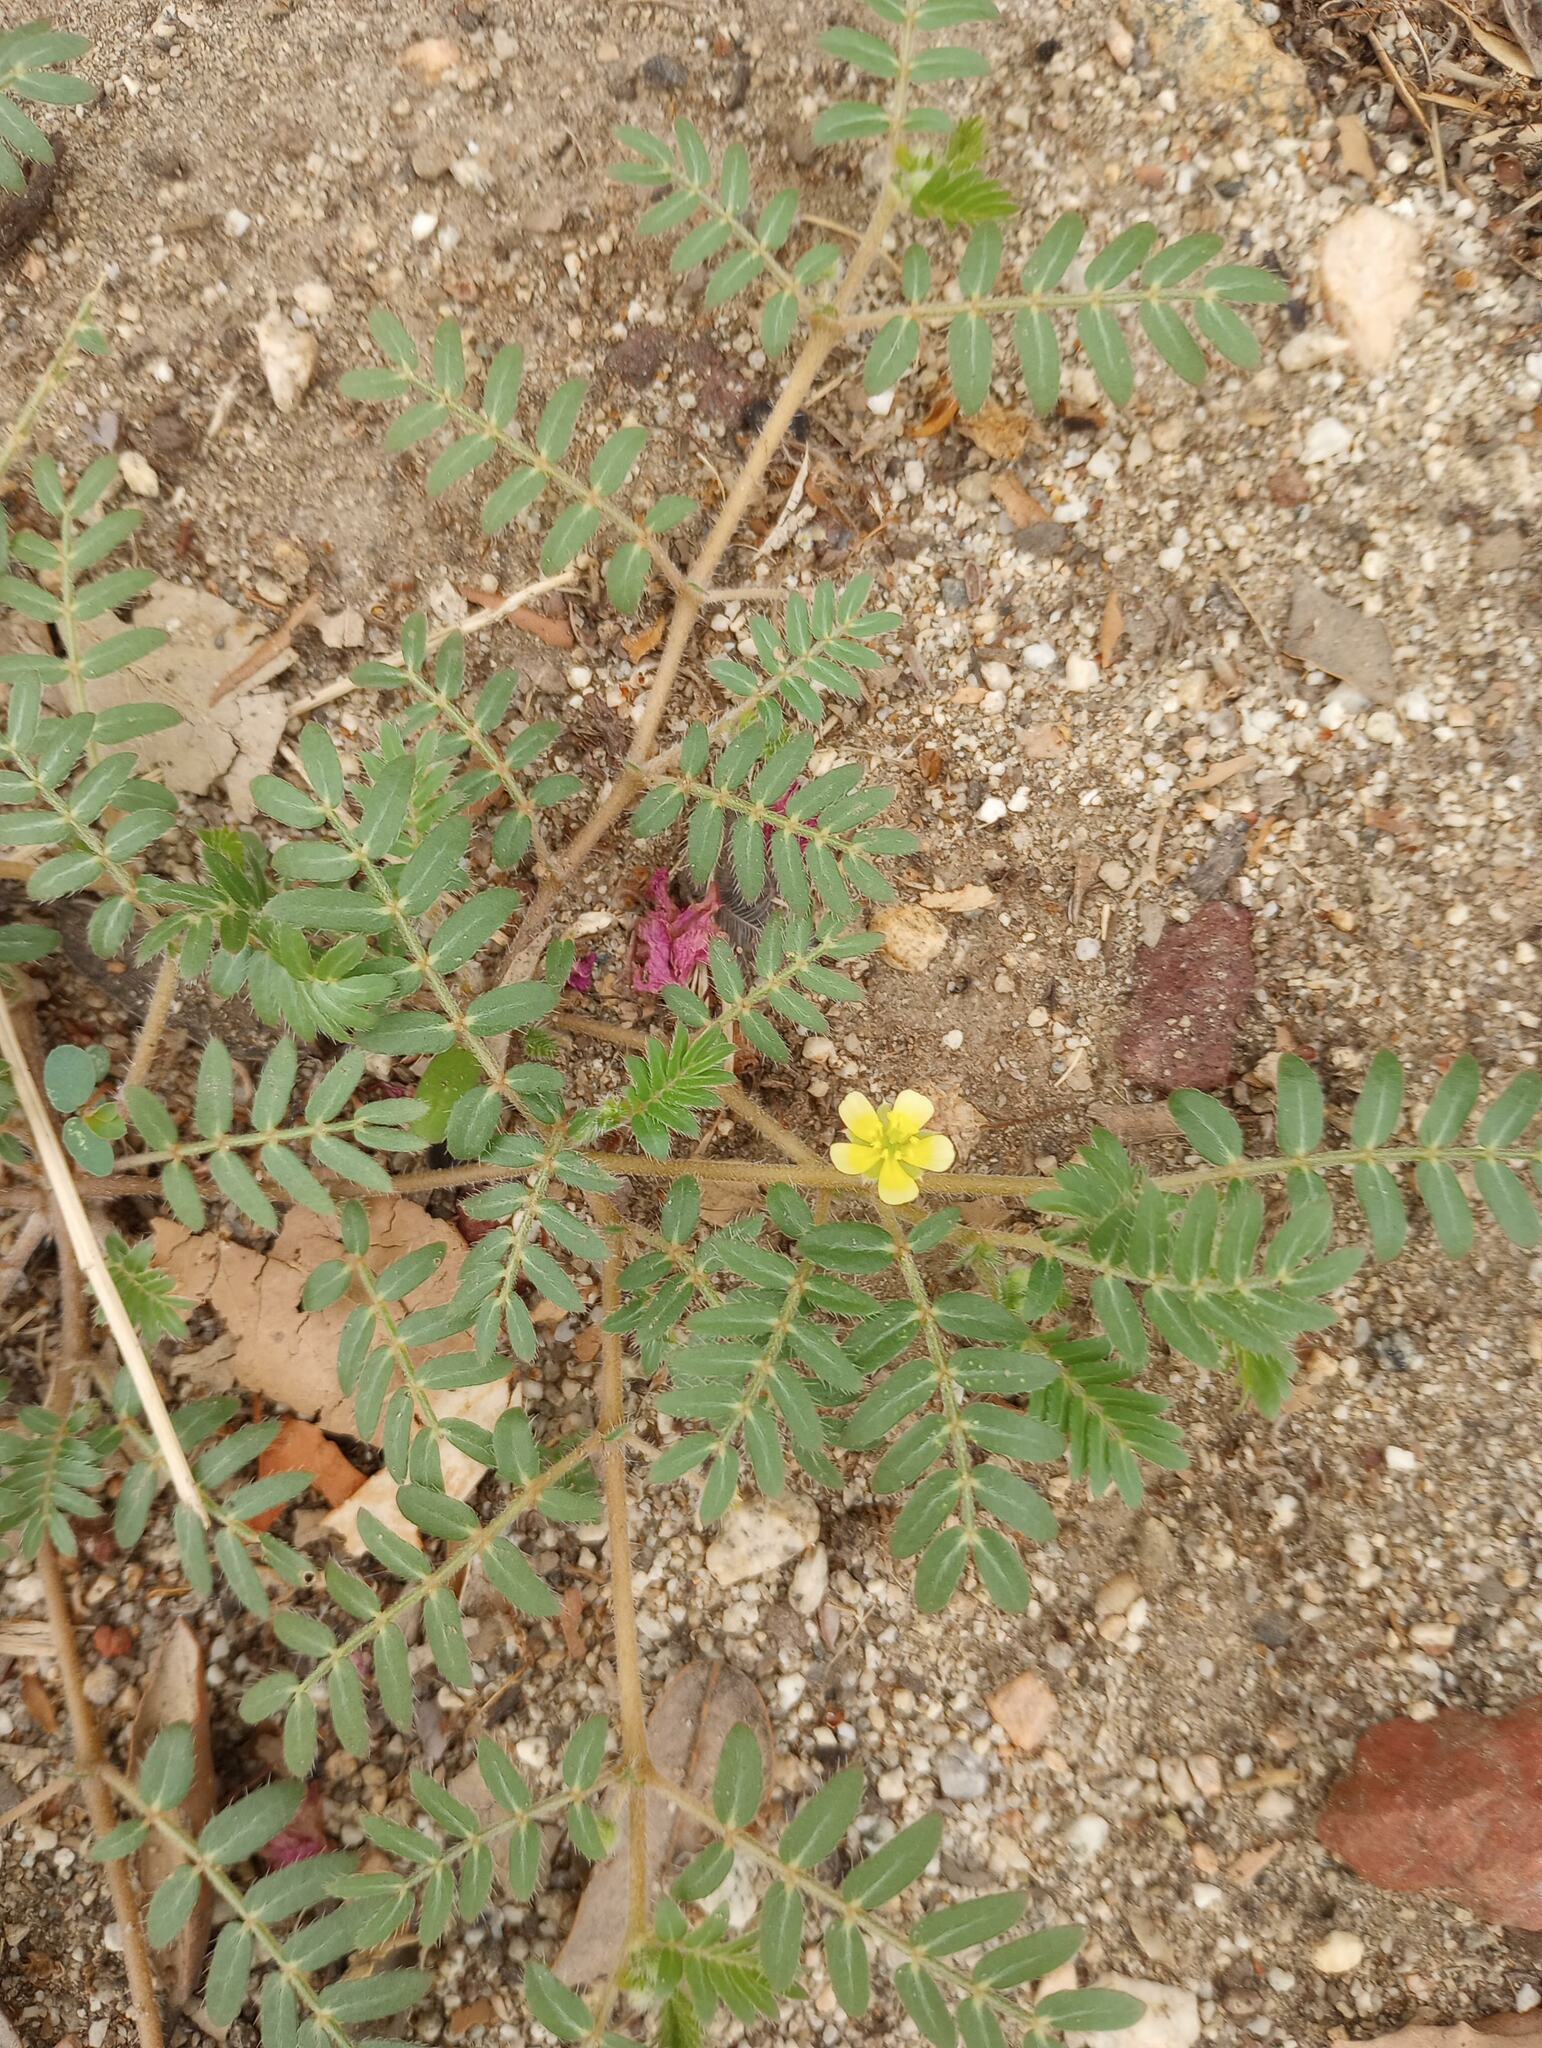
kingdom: Plantae
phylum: Tracheophyta
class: Magnoliopsida
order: Zygophyllales
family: Zygophyllaceae
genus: Tribulus
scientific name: Tribulus terrestris
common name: Puncturevine
